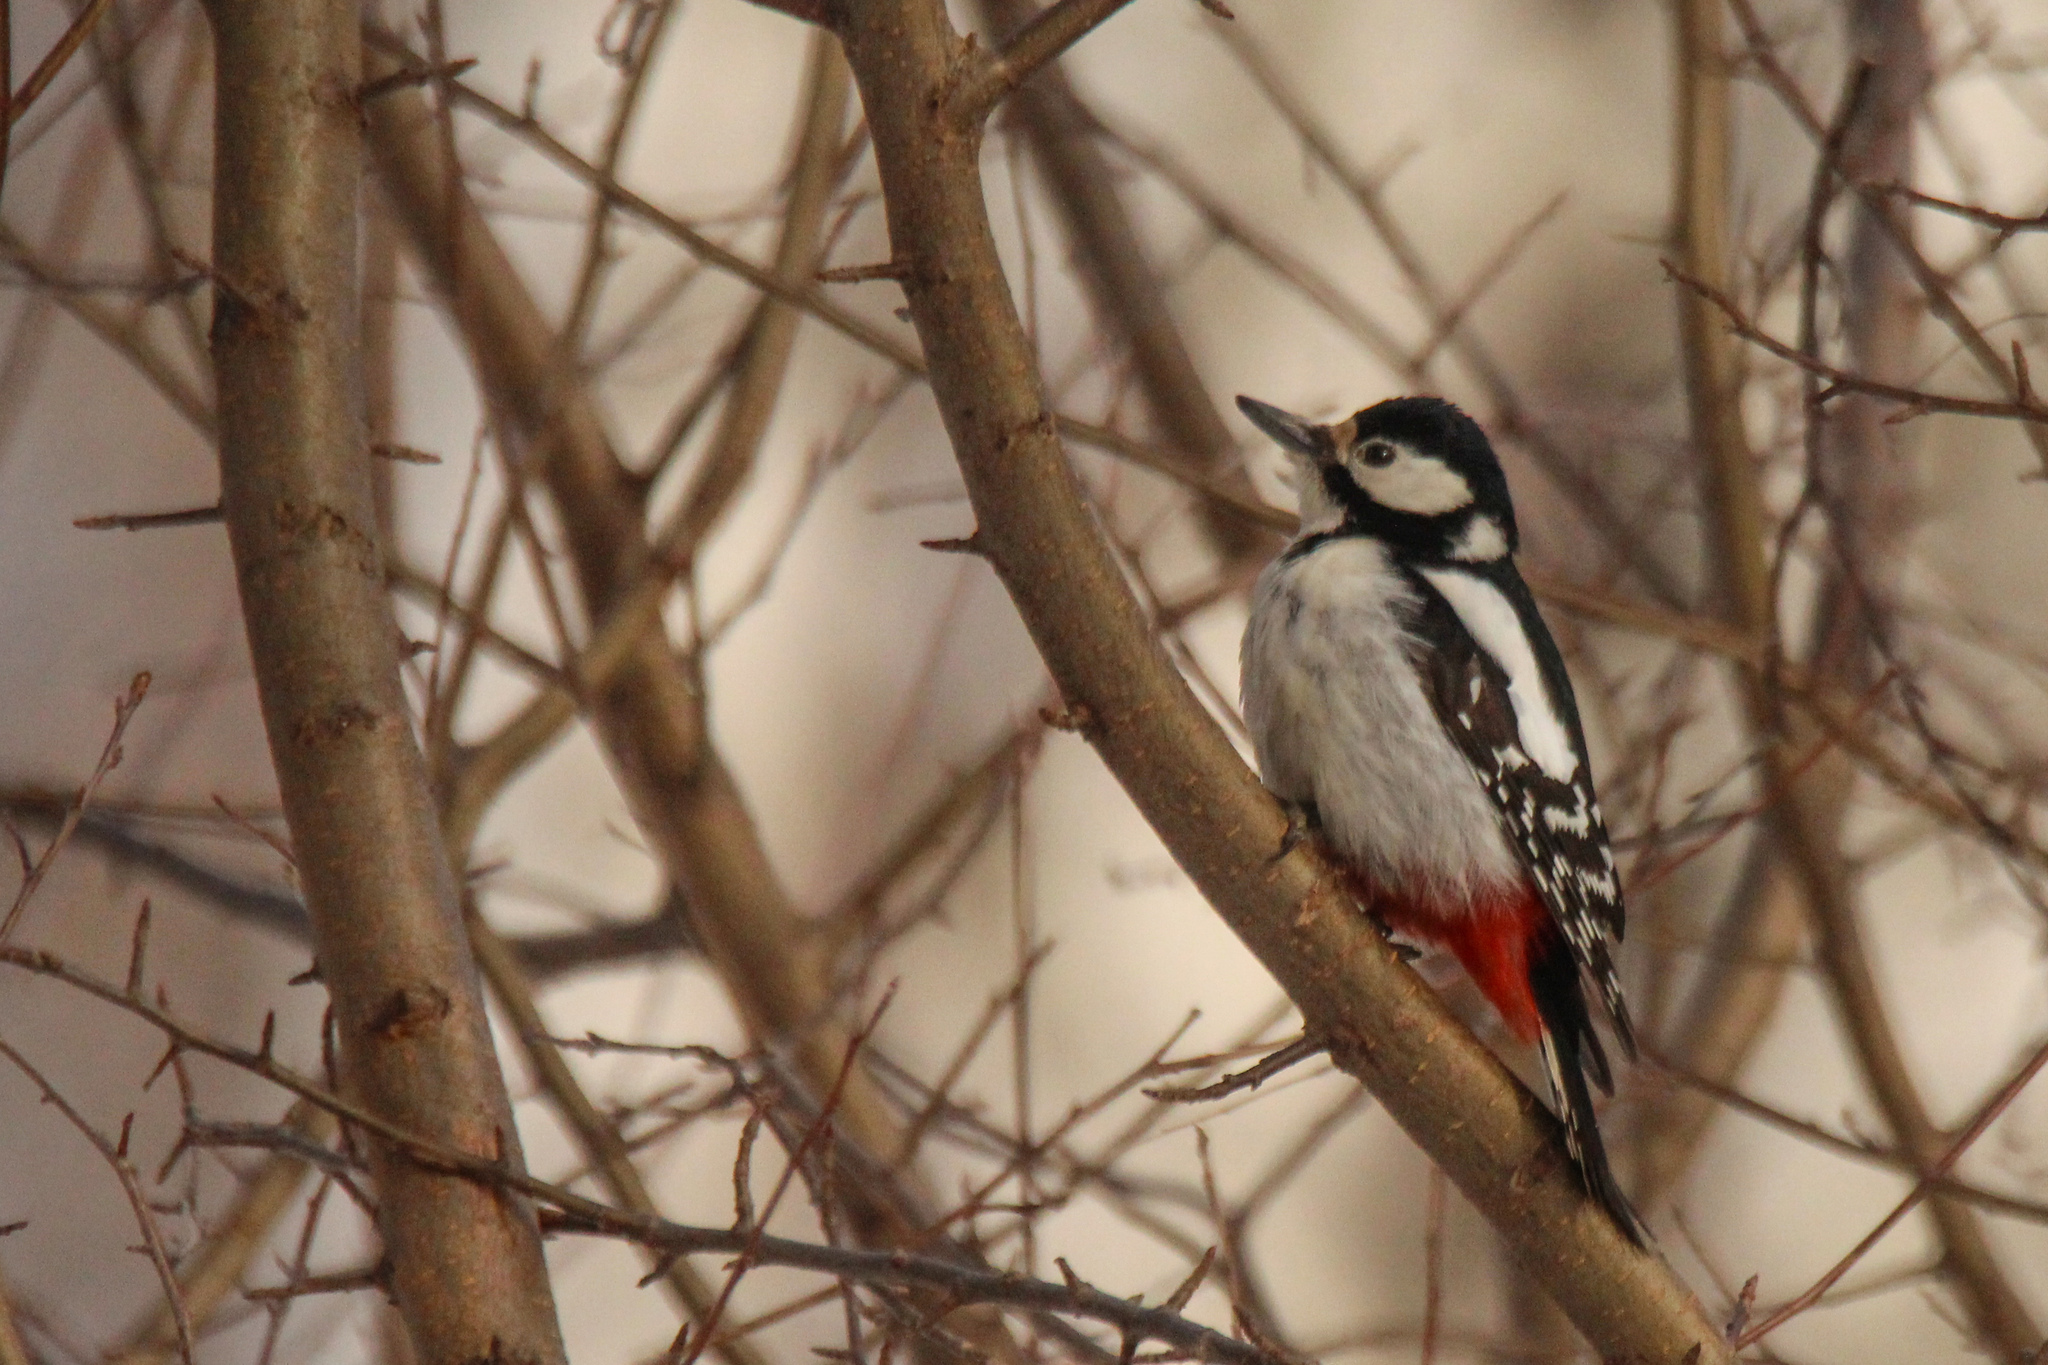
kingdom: Animalia
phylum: Chordata
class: Aves
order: Piciformes
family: Picidae
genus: Dendrocopos
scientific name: Dendrocopos major
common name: Great spotted woodpecker
